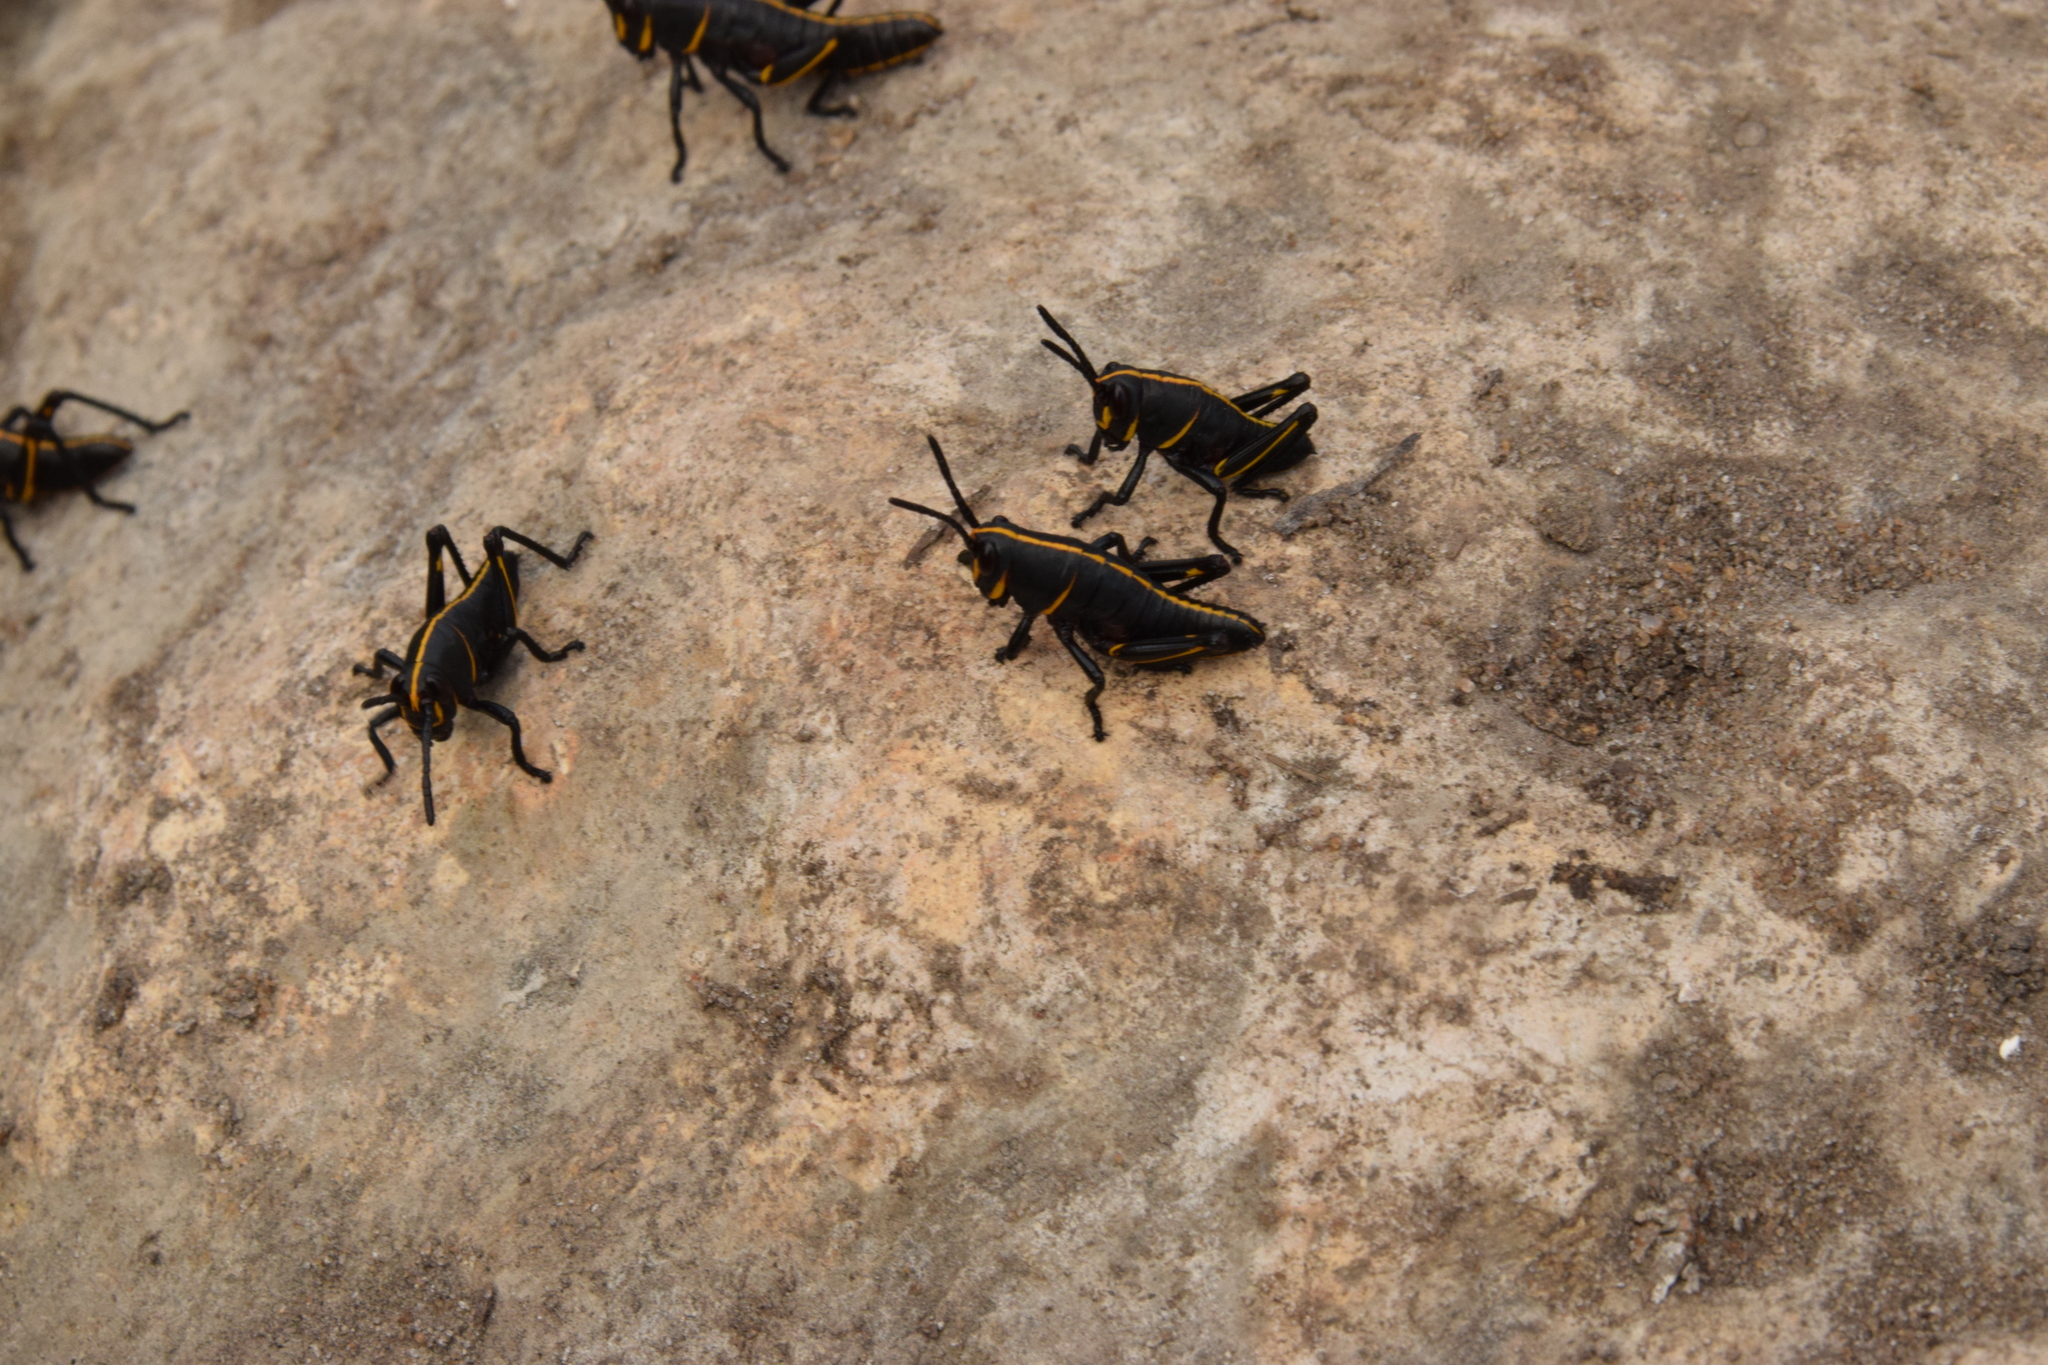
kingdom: Animalia
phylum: Arthropoda
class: Insecta
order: Orthoptera
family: Romaleidae
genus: Romalea
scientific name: Romalea microptera
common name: Eastern lubber grasshopper
